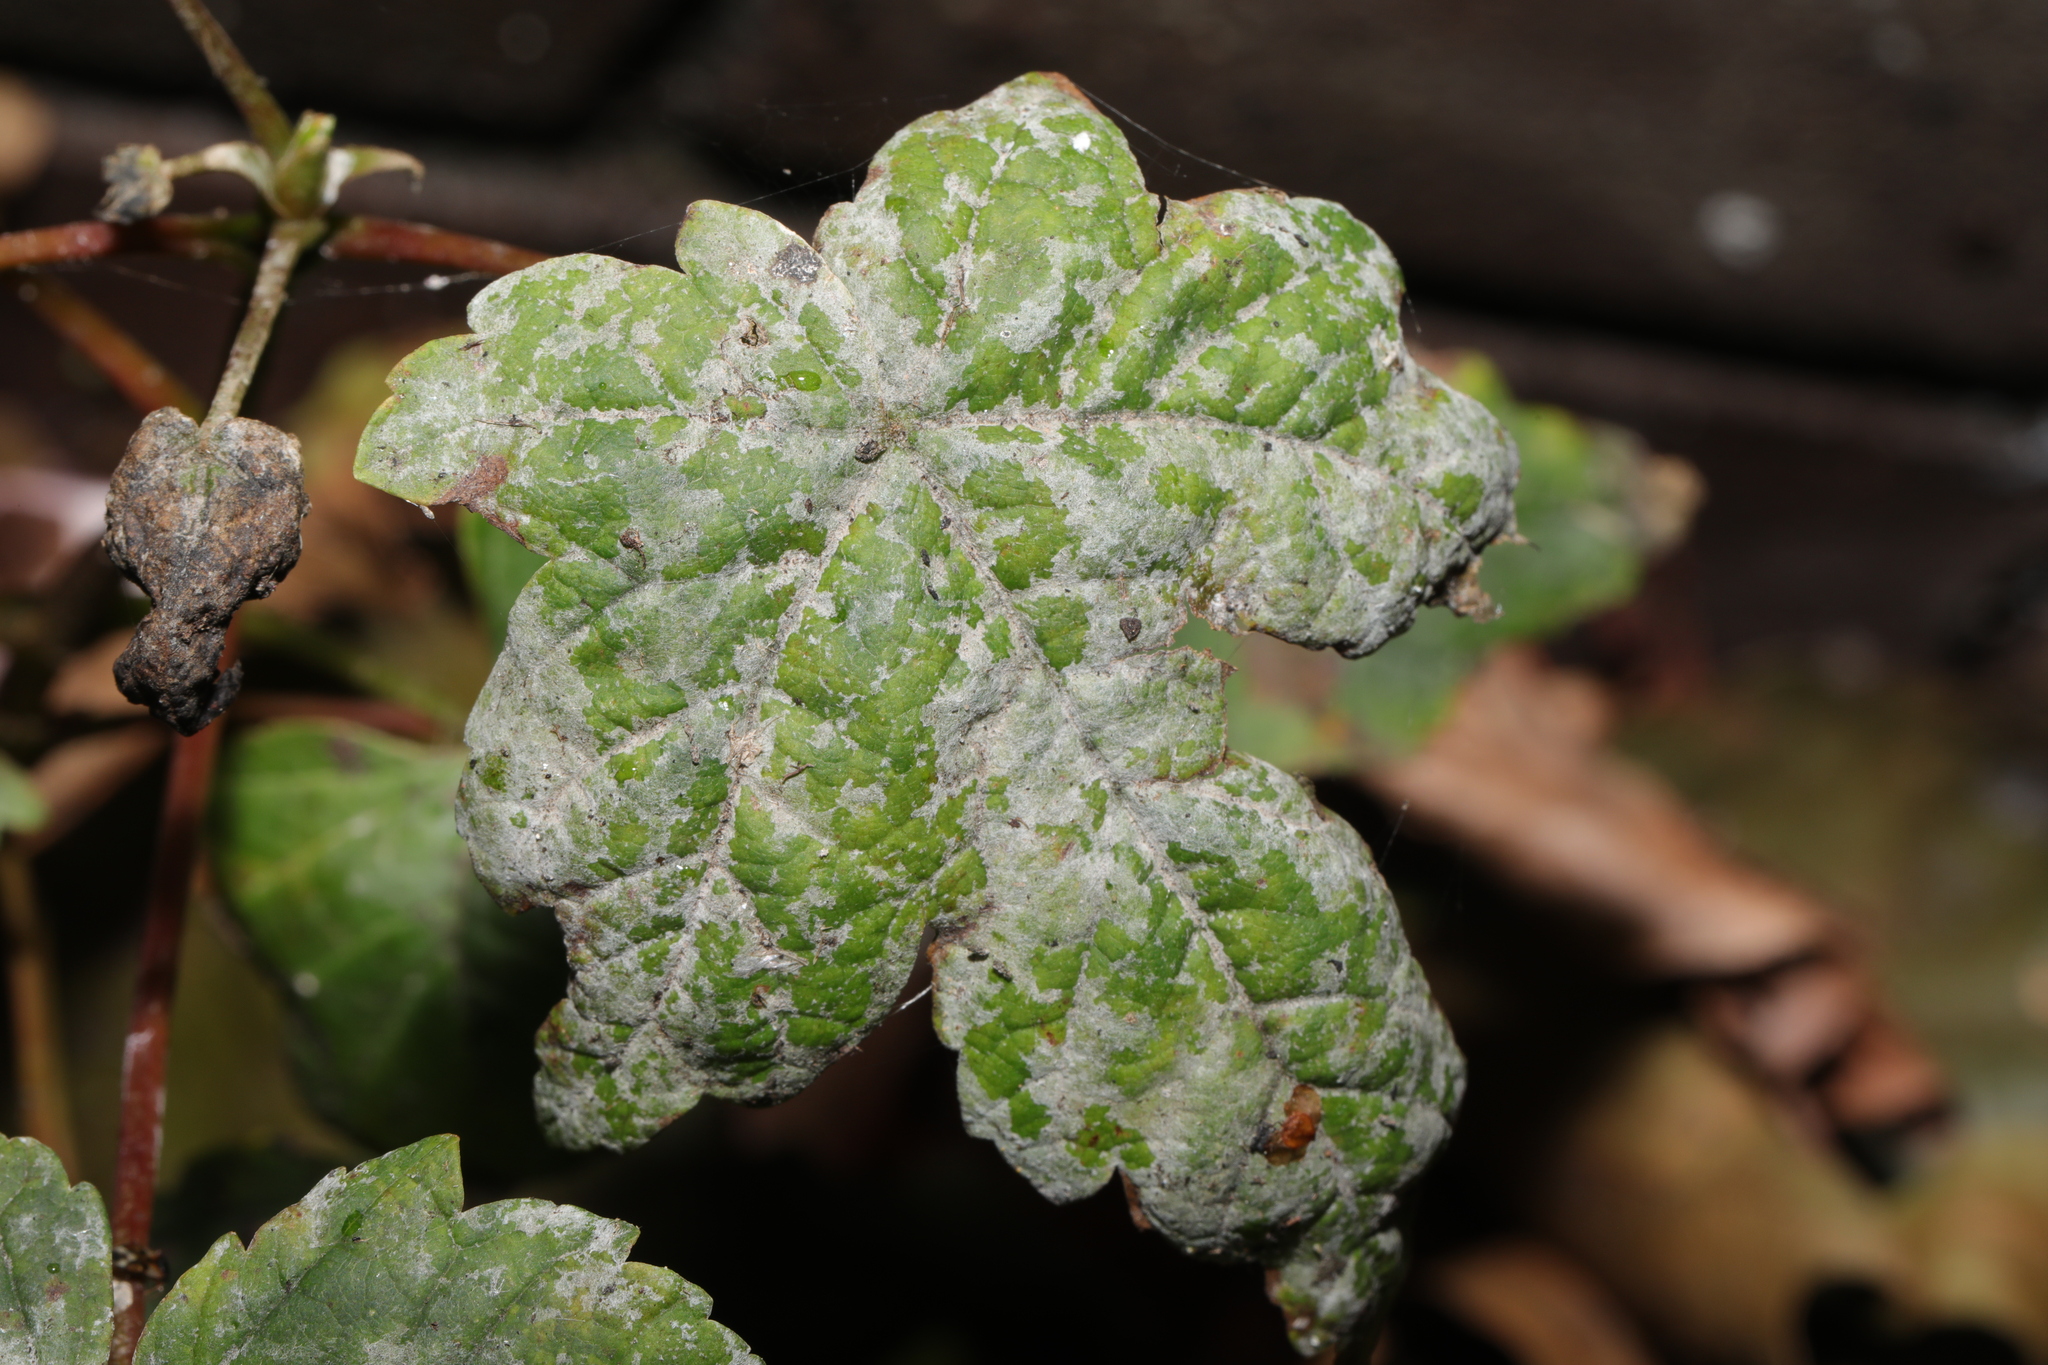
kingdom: Fungi
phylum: Ascomycota
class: Leotiomycetes
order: Helotiales
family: Erysiphaceae
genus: Sawadaea
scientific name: Sawadaea bicornis
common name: Maple mildew
